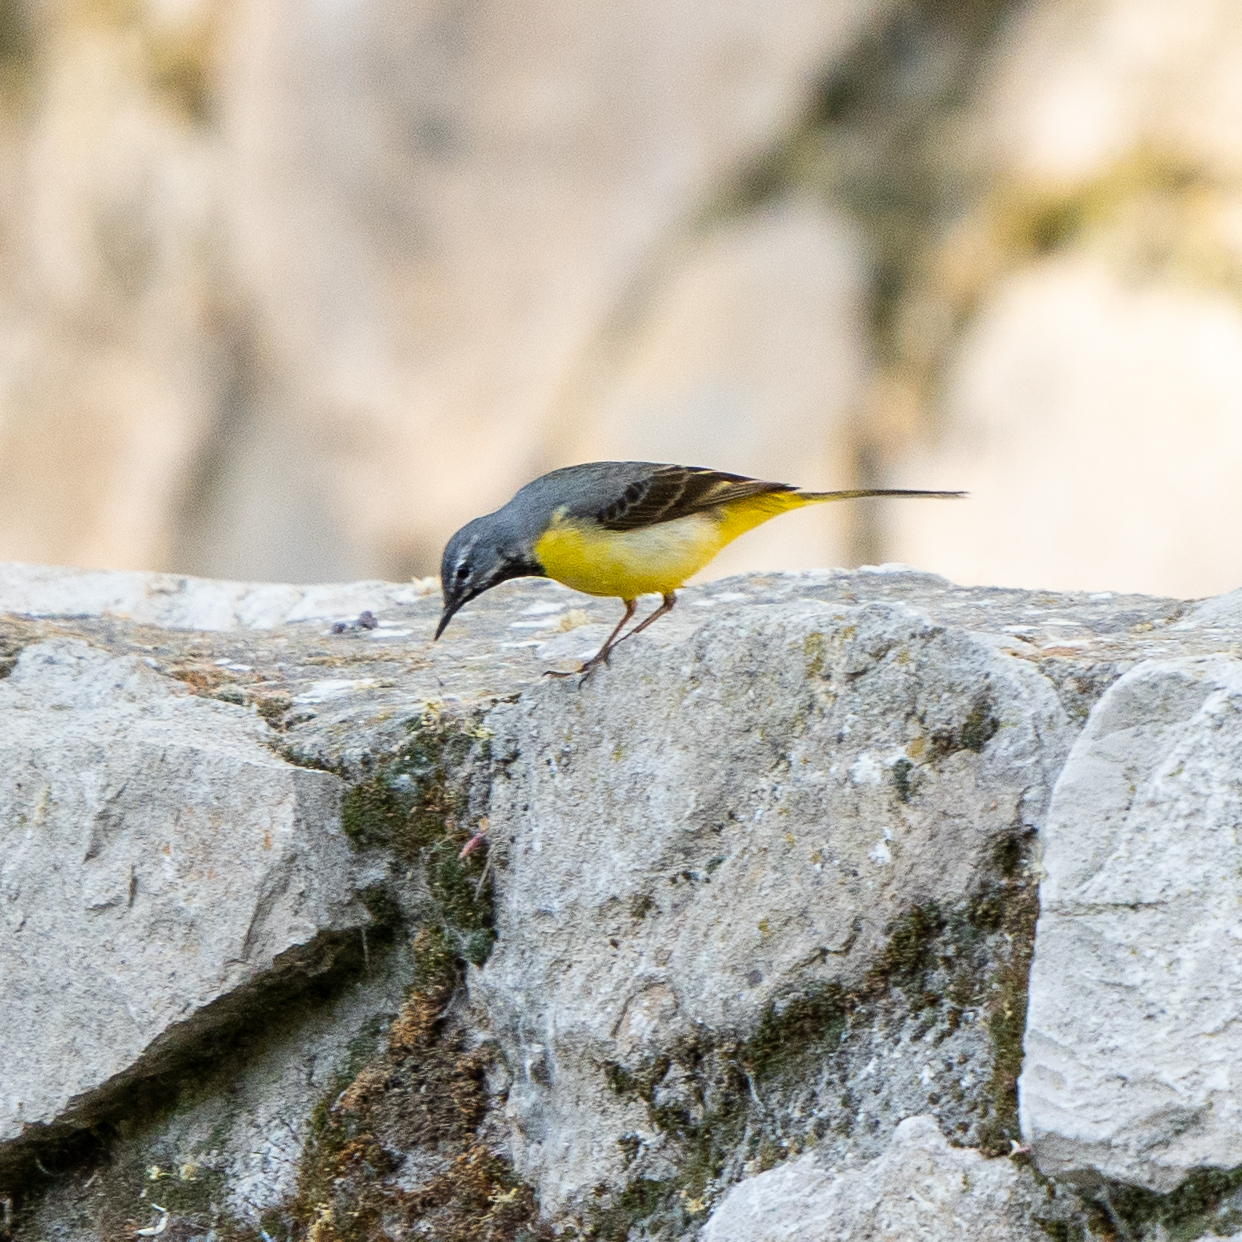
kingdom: Animalia
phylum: Chordata
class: Aves
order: Passeriformes
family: Motacillidae
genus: Motacilla
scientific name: Motacilla cinerea
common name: Grey wagtail
